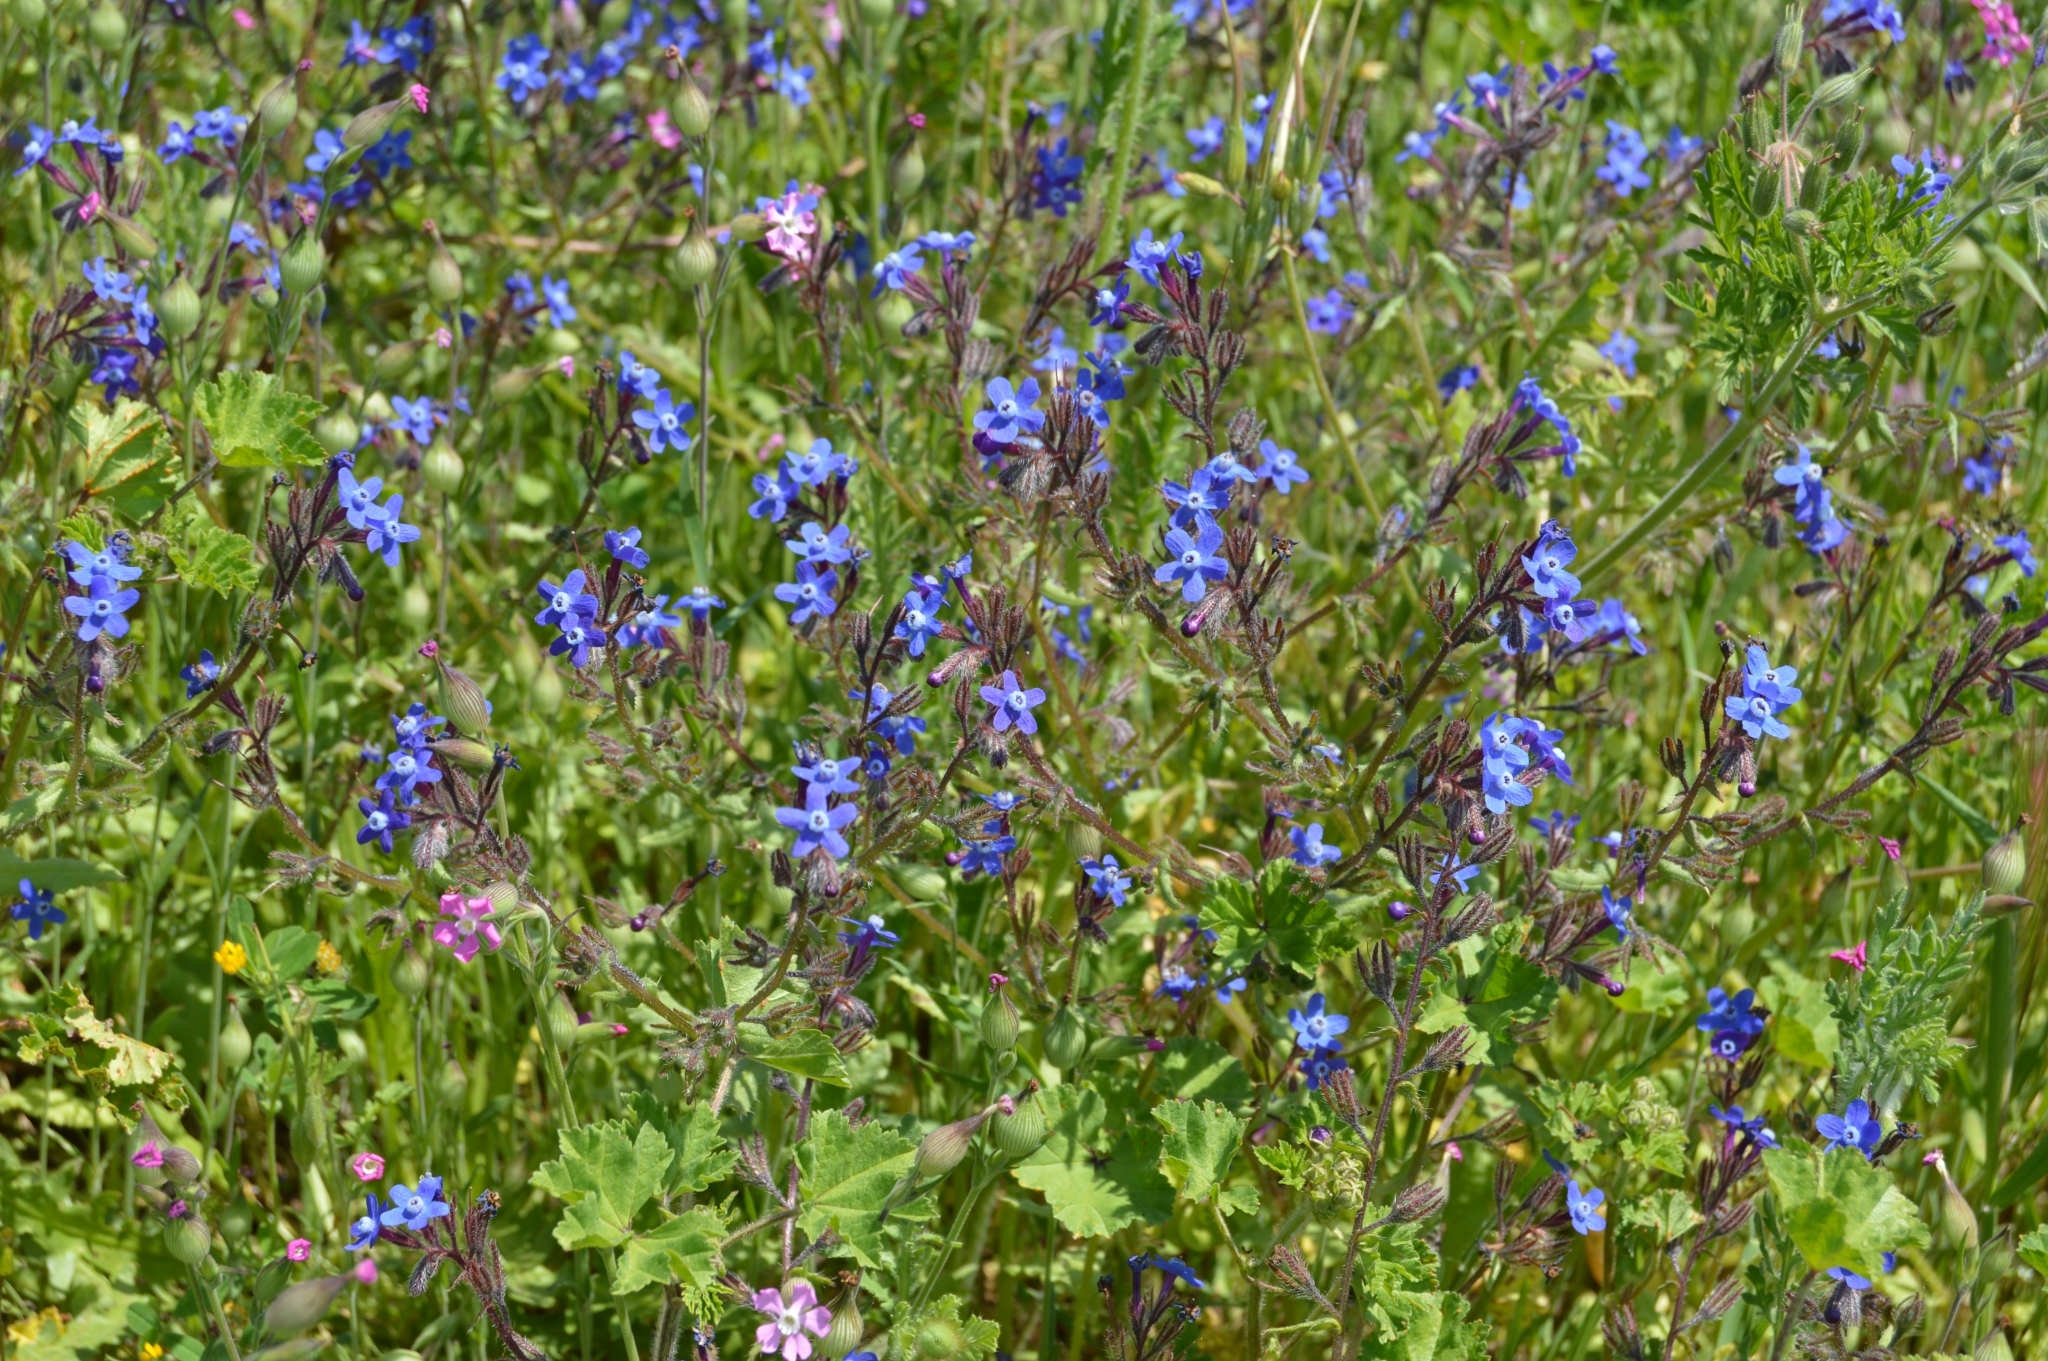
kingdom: Plantae
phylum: Tracheophyta
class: Magnoliopsida
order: Boraginales
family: Boraginaceae
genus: Anchusa
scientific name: Anchusa stylosa
